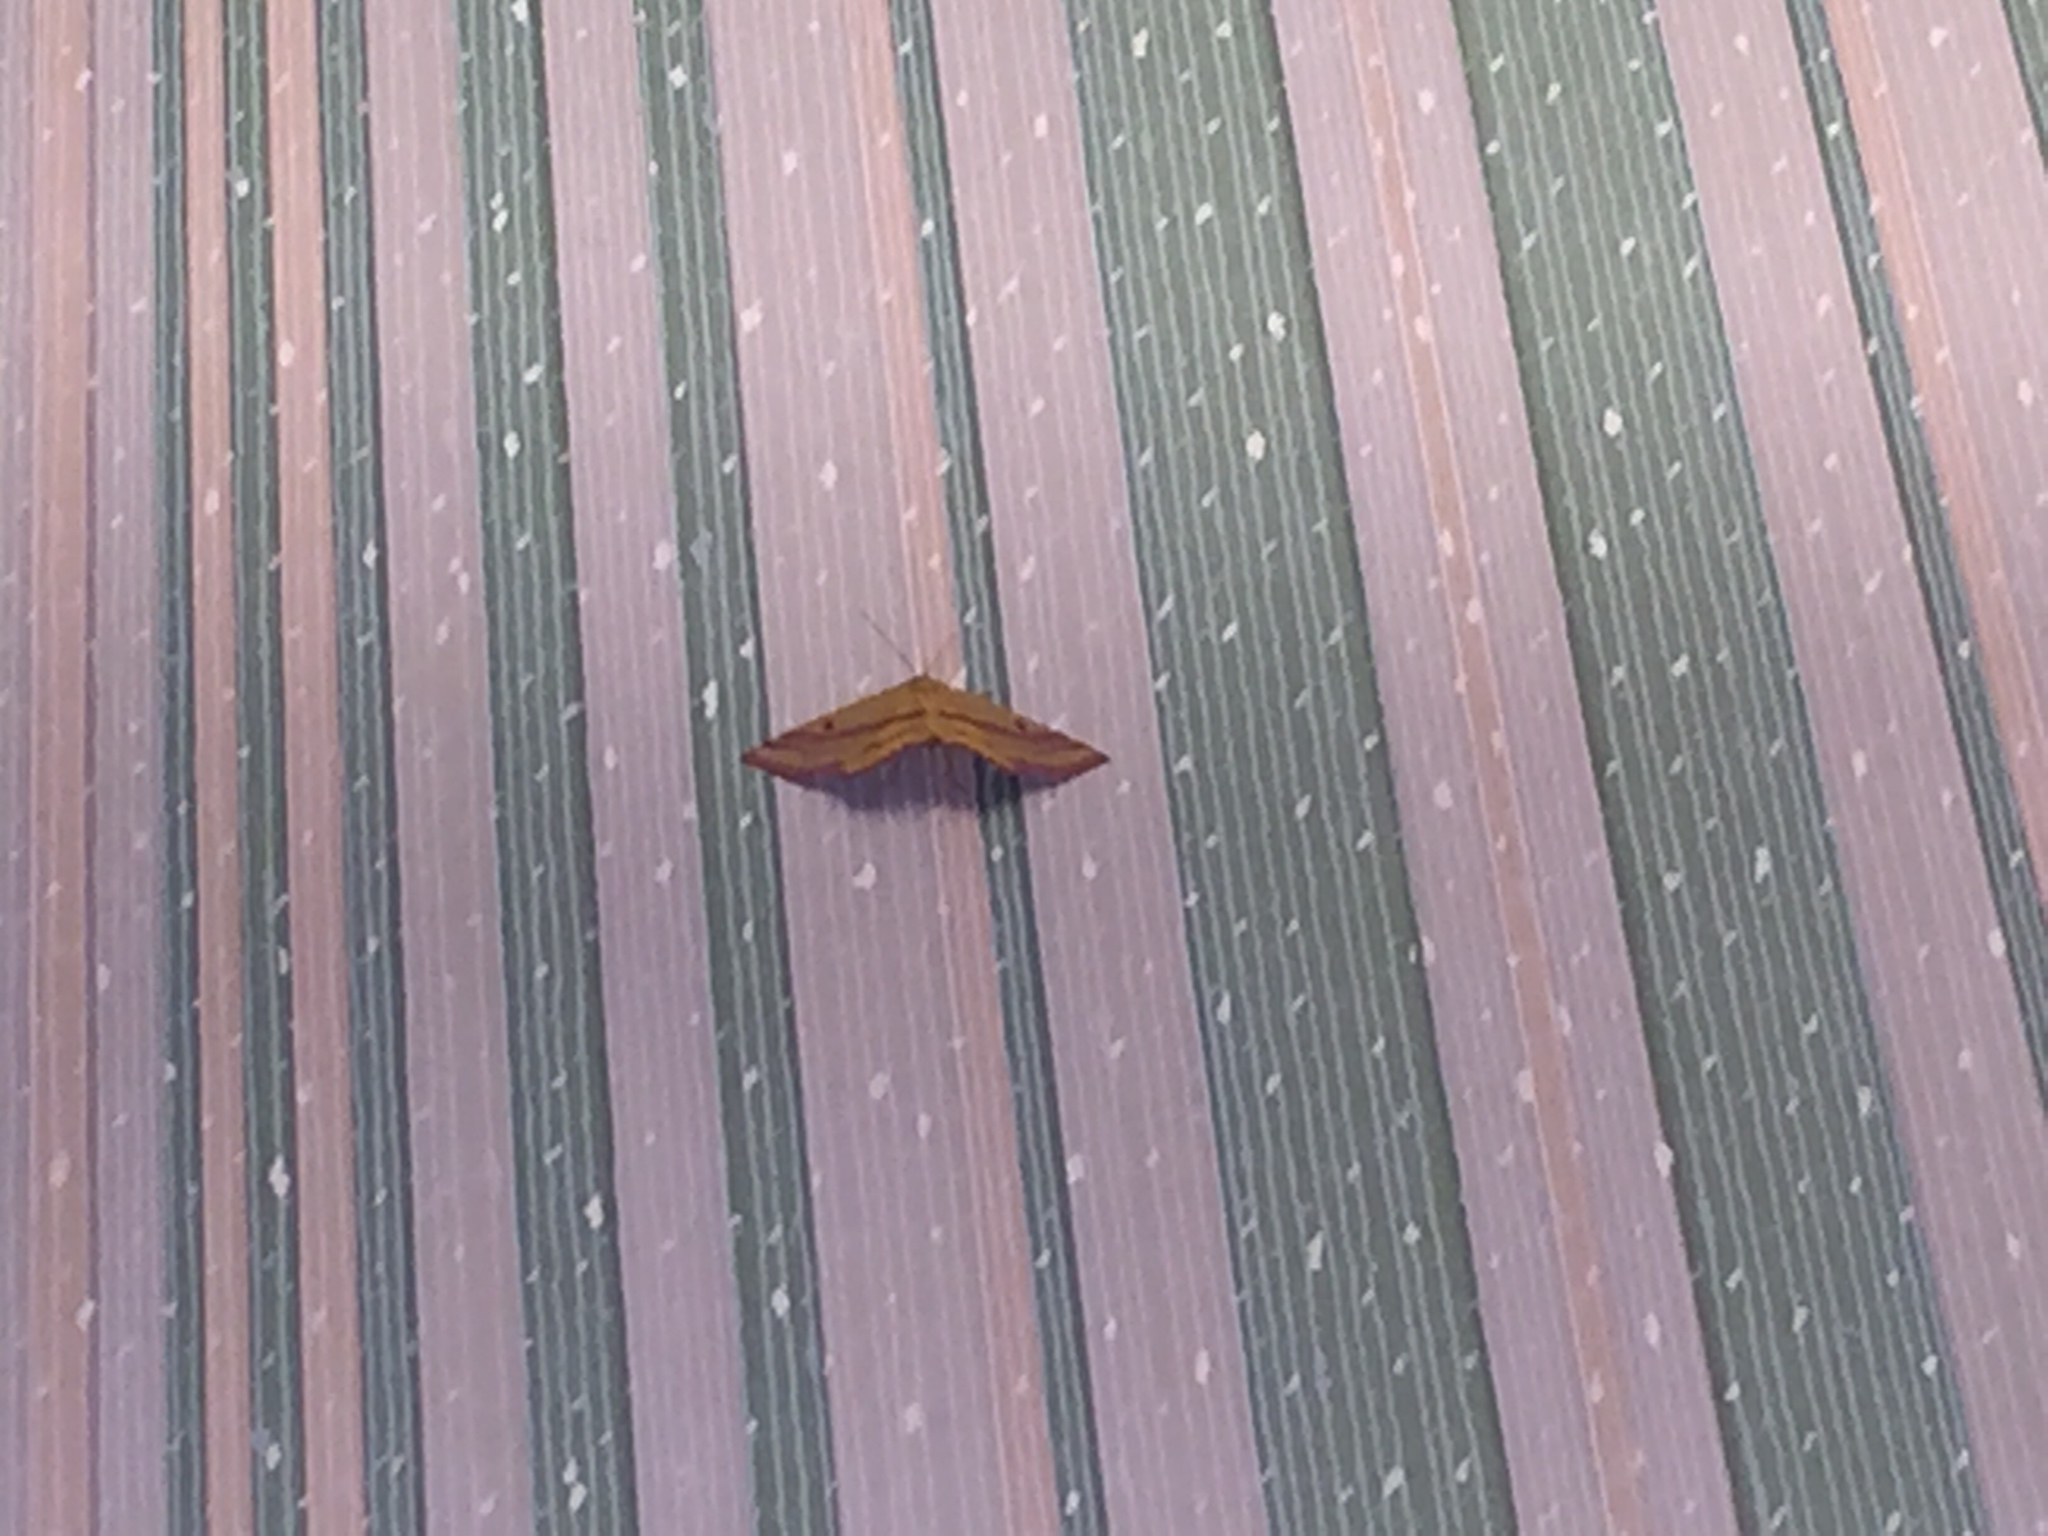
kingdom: Animalia
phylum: Arthropoda
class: Insecta
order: Lepidoptera
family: Geometridae
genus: Haematopis
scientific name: Haematopis grataria
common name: Chickweed geometer
